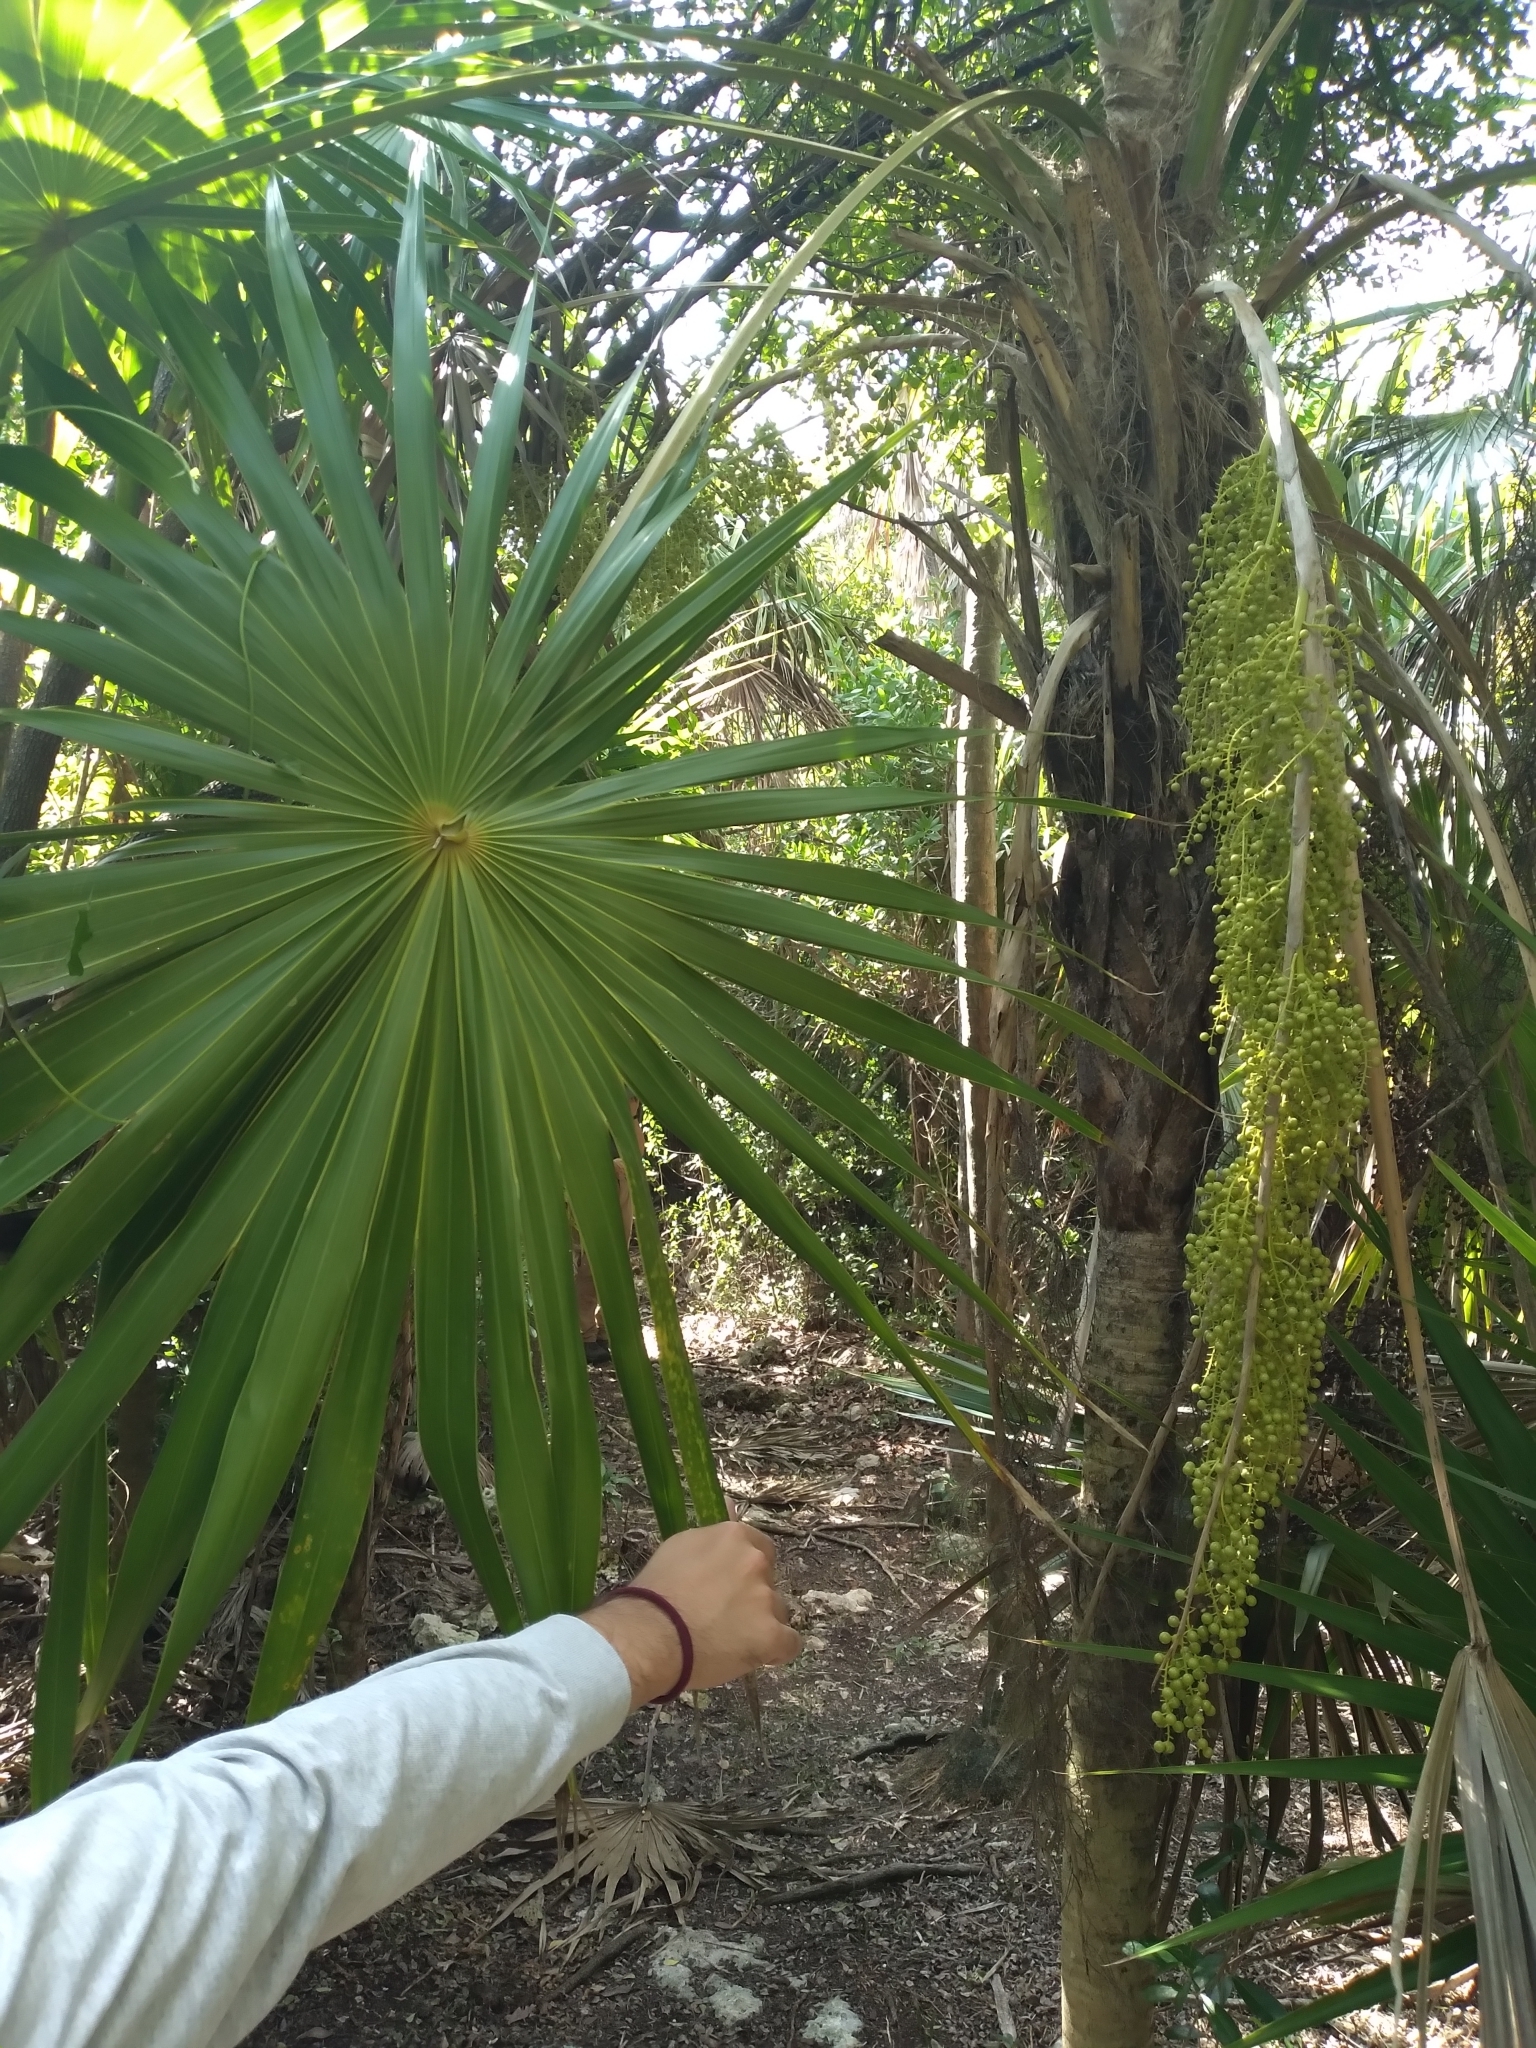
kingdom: Plantae
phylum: Tracheophyta
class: Liliopsida
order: Arecales
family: Arecaceae
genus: Thrinax
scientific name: Thrinax radiata
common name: Florida thatch
